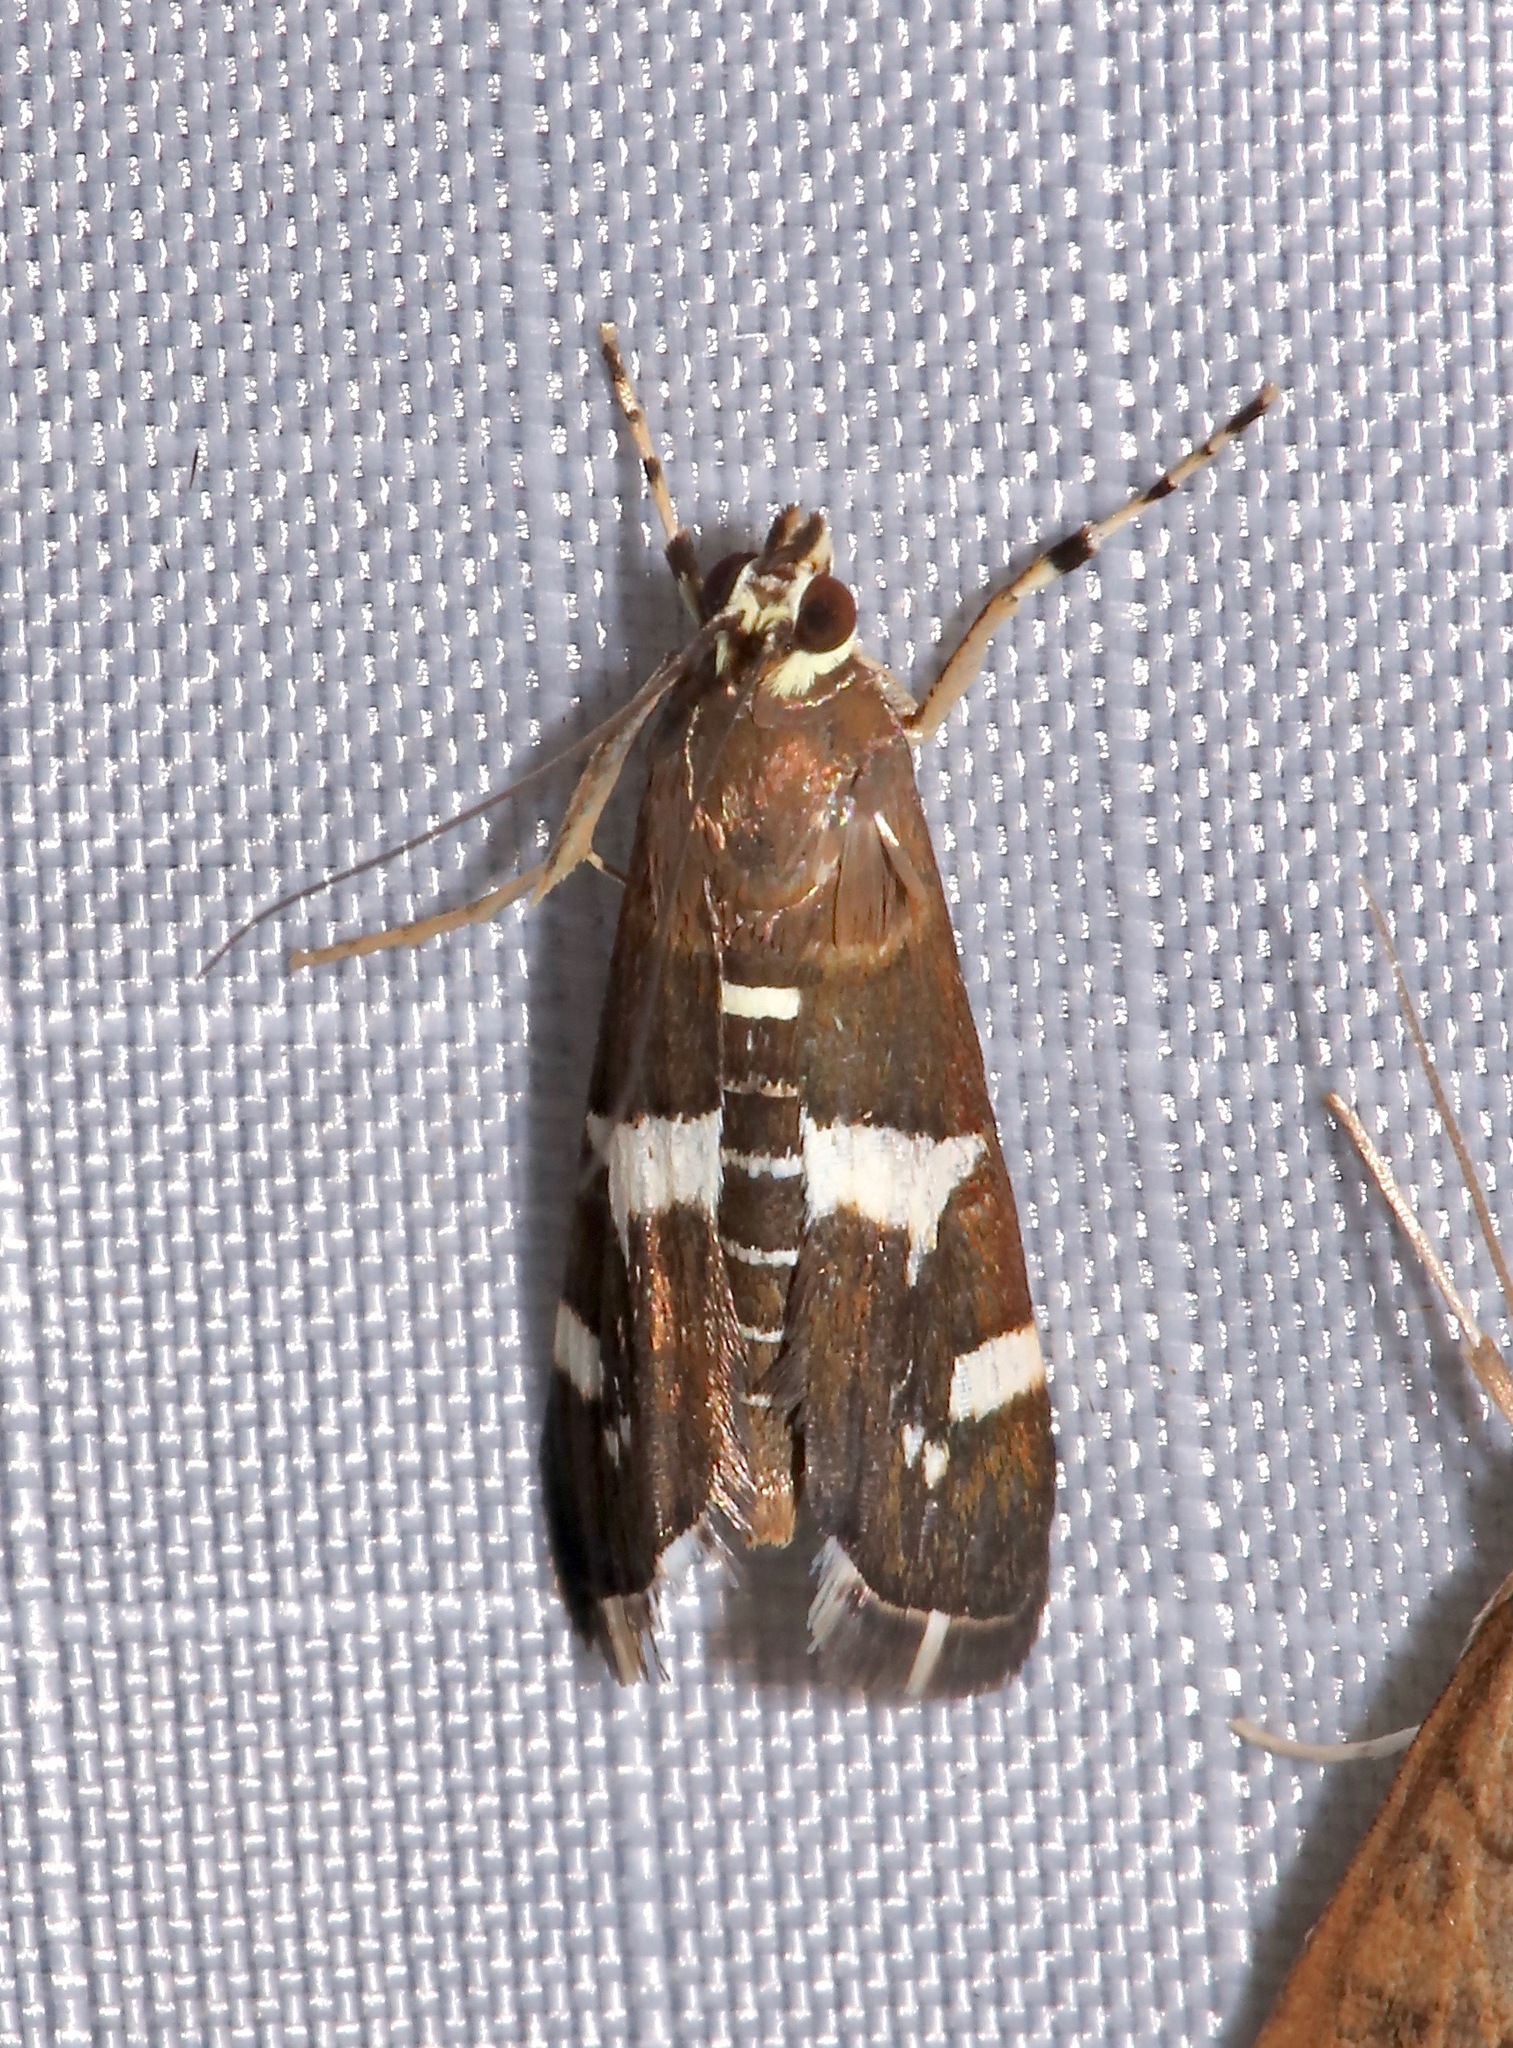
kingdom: Animalia
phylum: Arthropoda
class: Insecta
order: Lepidoptera
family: Crambidae
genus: Spoladea
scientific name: Spoladea recurvalis
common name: Beet webworm moth
